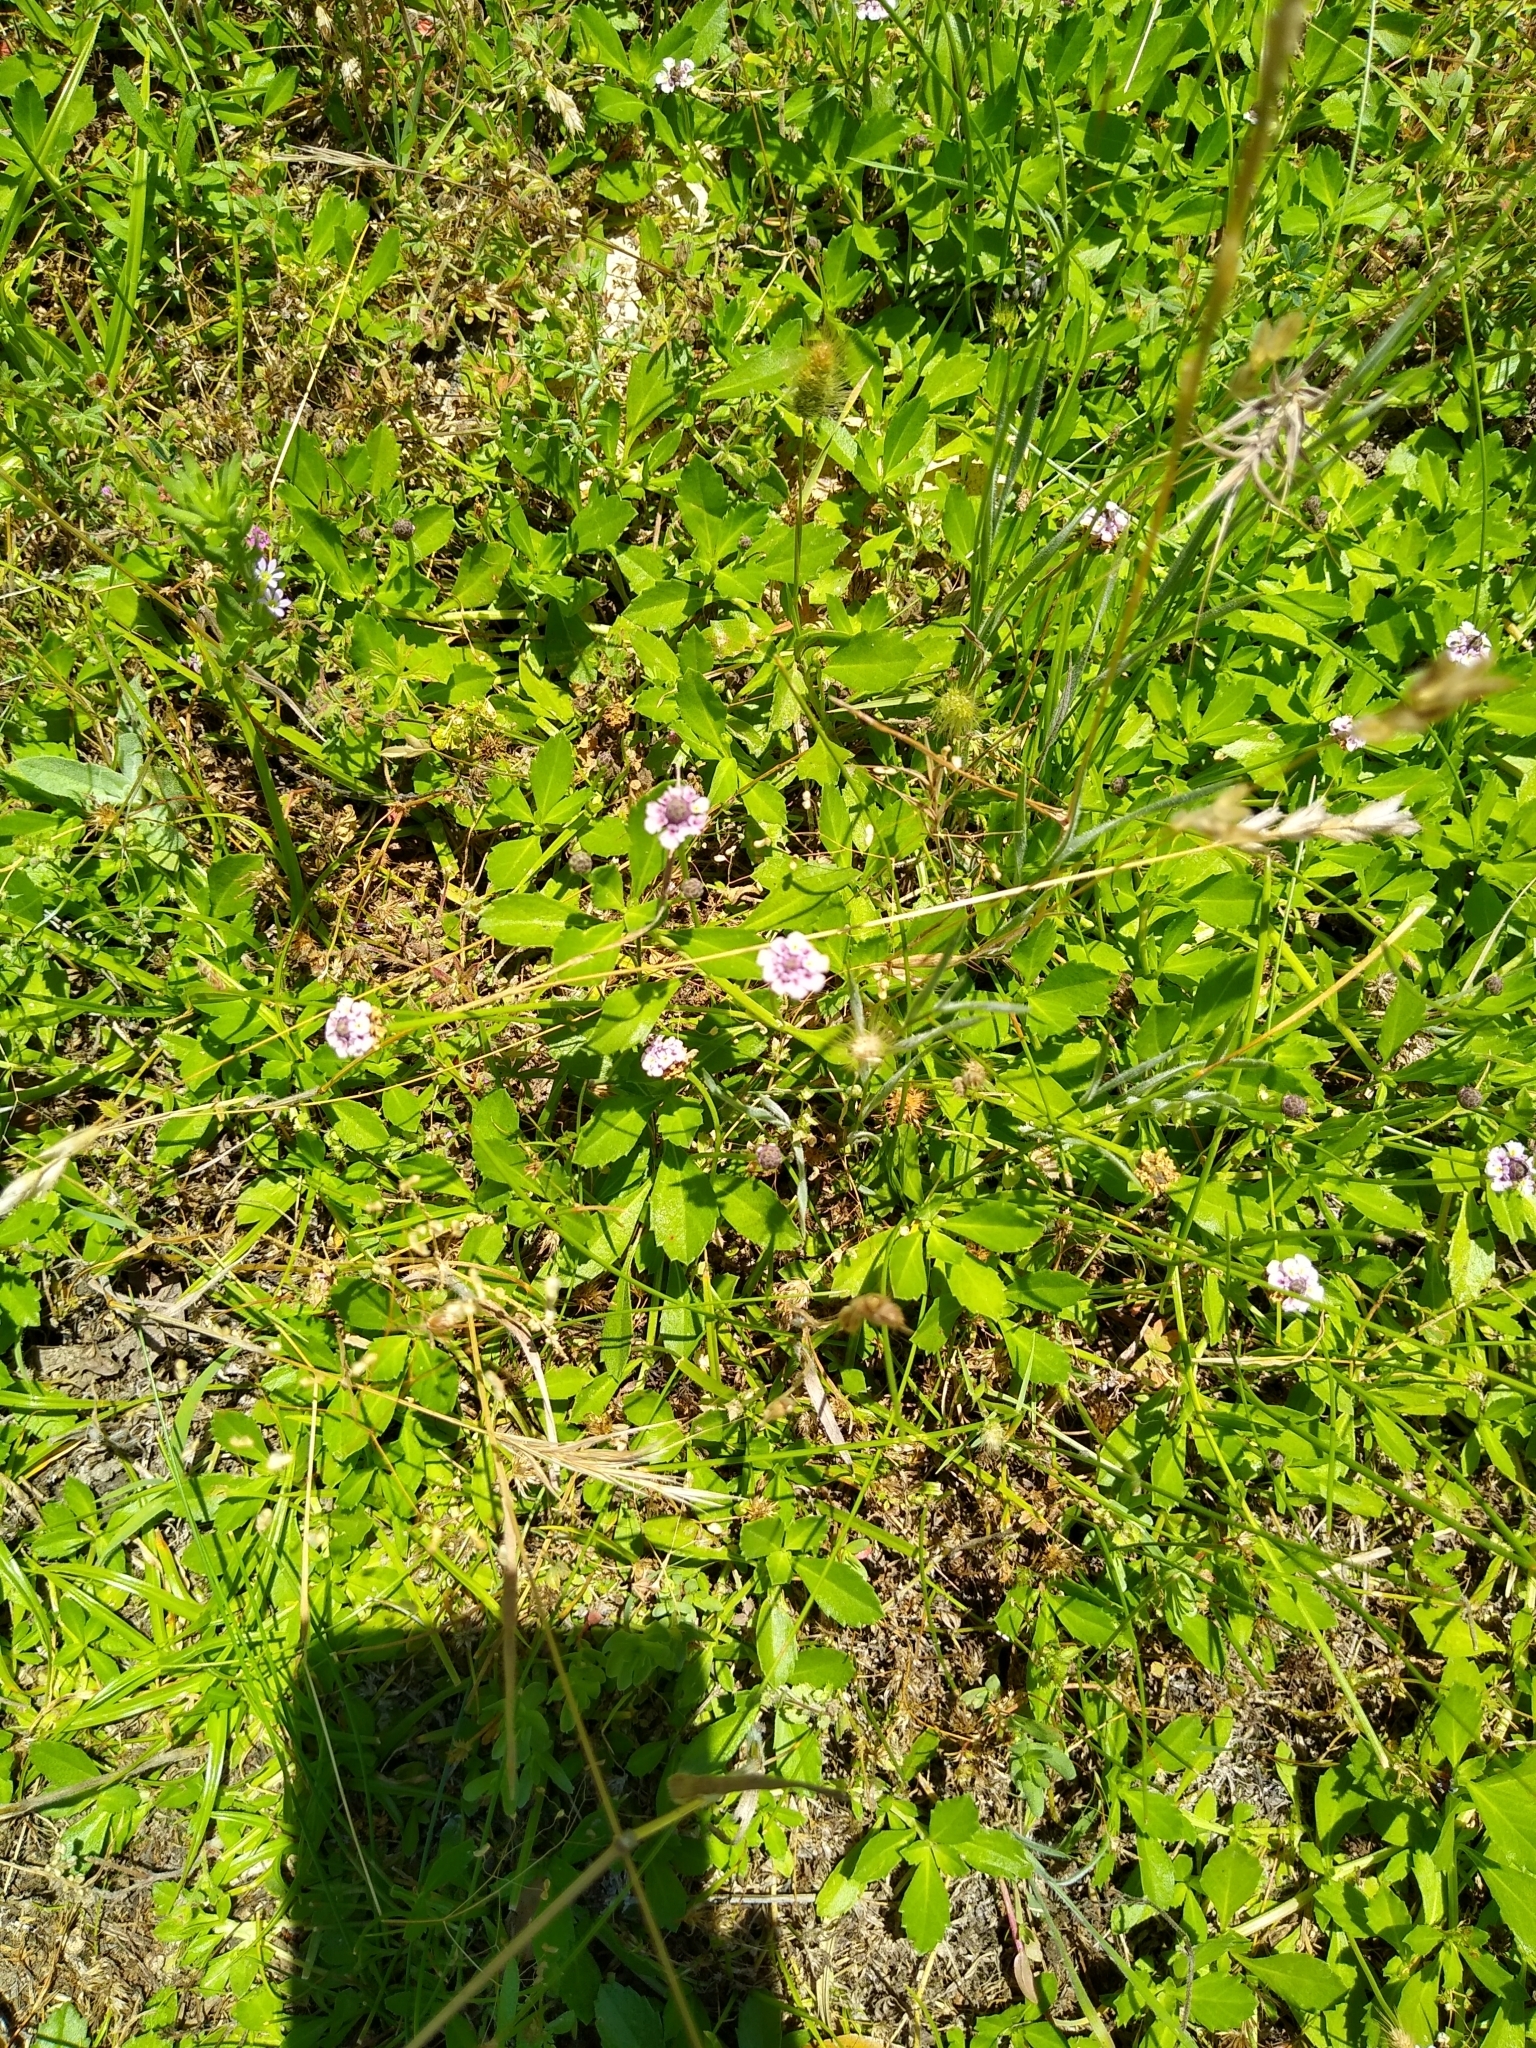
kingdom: Plantae
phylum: Tracheophyta
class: Magnoliopsida
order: Lamiales
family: Verbenaceae
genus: Phyla
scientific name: Phyla nodiflora
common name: Frogfruit
